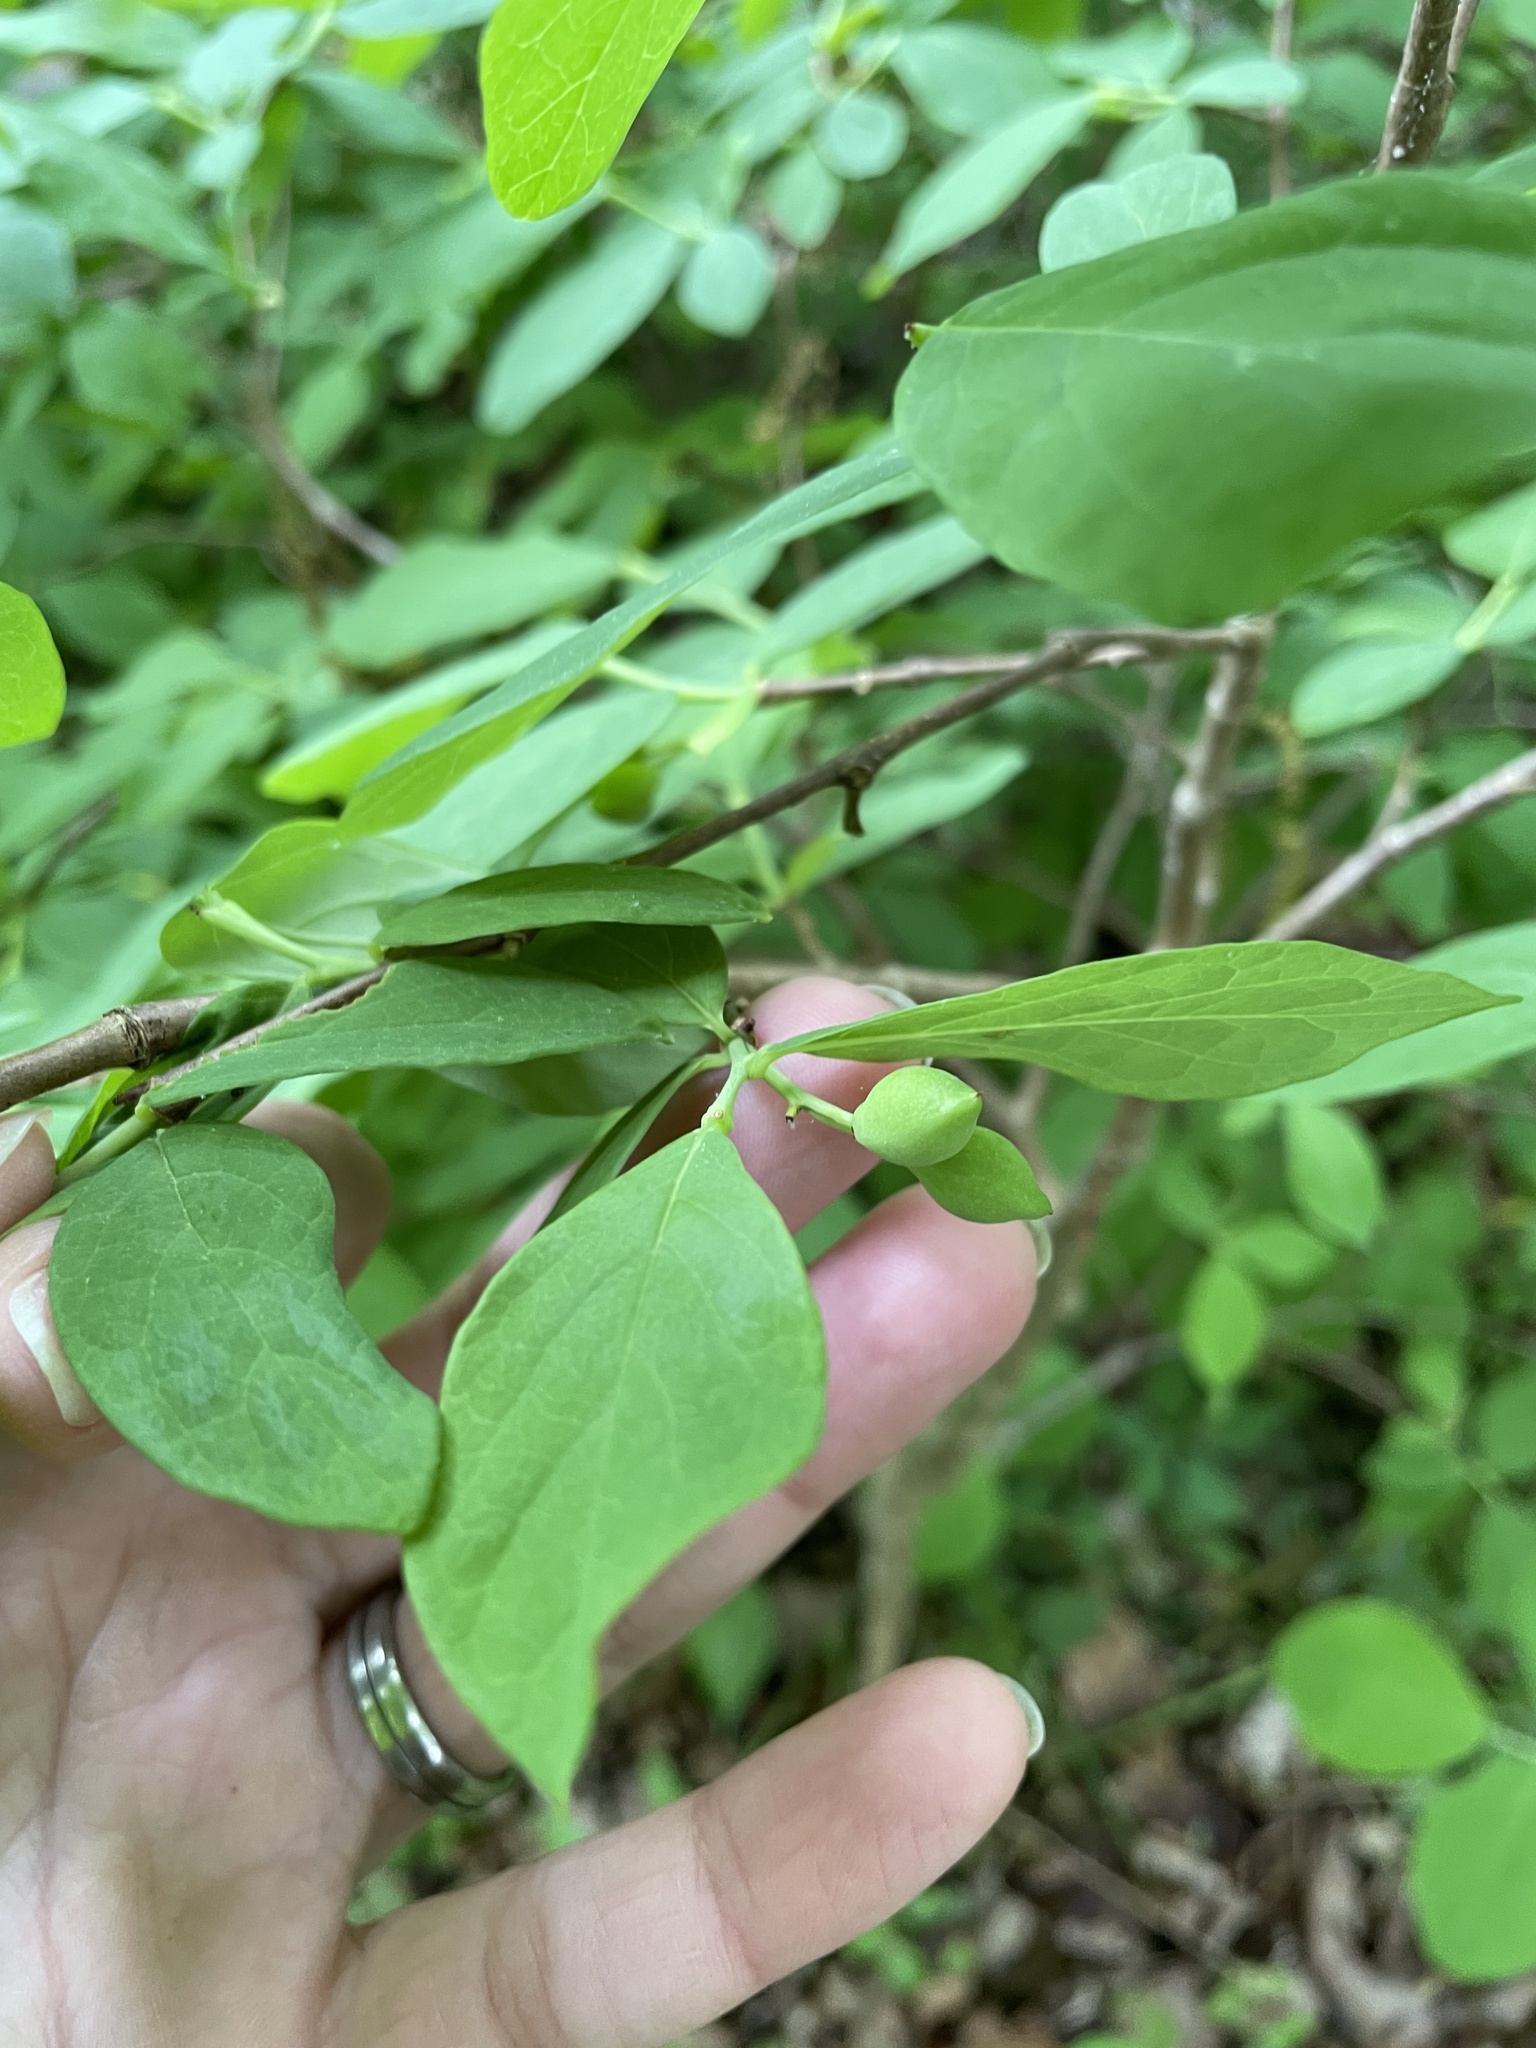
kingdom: Plantae
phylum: Tracheophyta
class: Magnoliopsida
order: Malvales
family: Thymelaeaceae
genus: Dirca
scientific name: Dirca palustris
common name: Leatherwood
